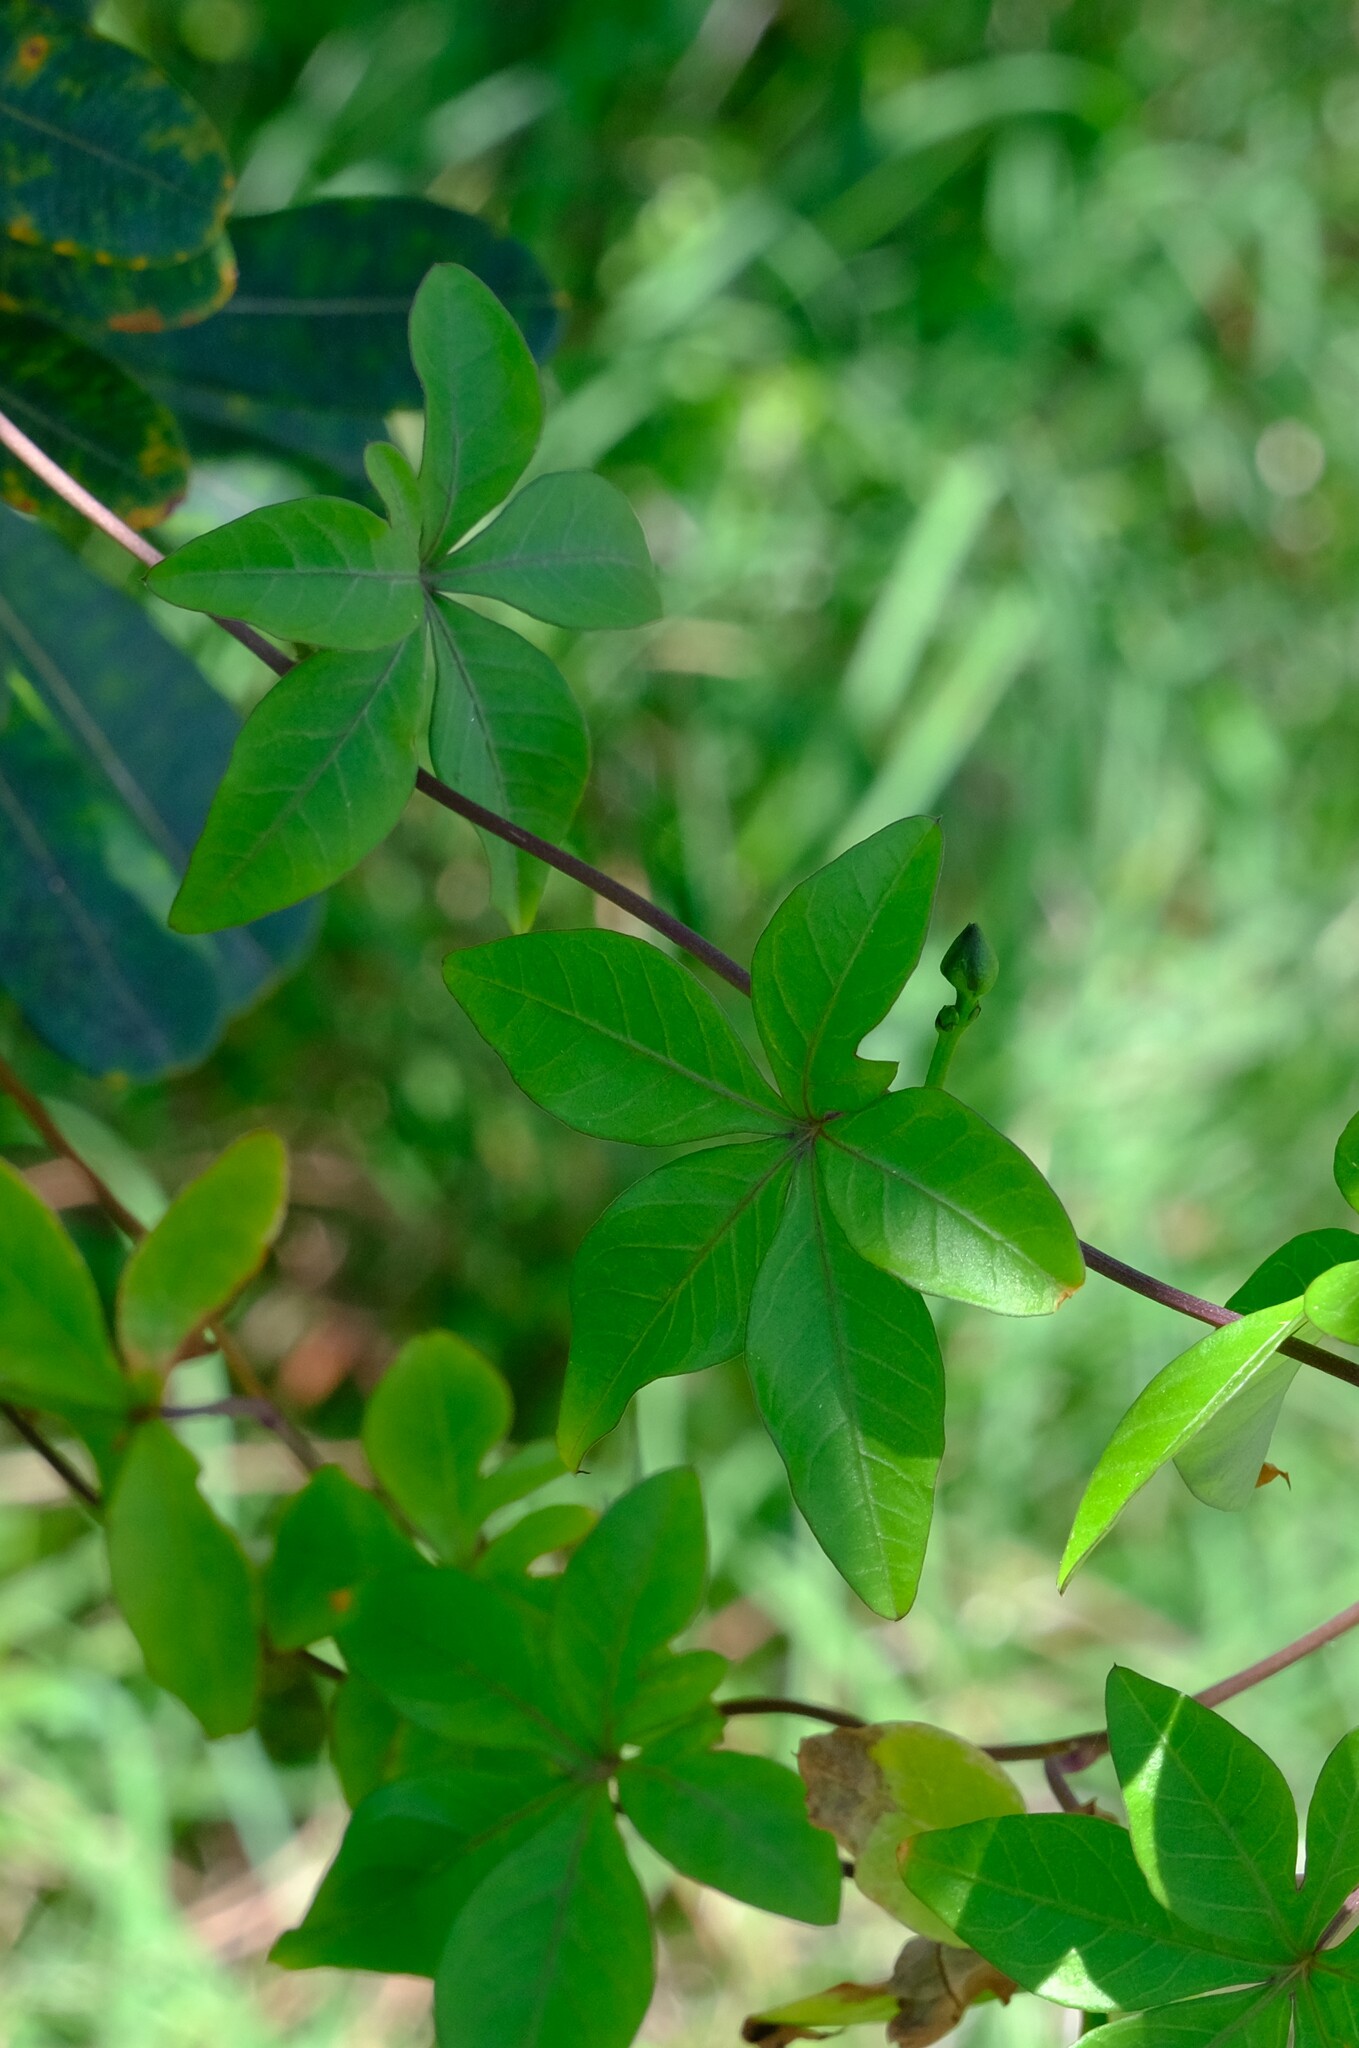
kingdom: Plantae
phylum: Tracheophyta
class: Magnoliopsida
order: Solanales
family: Convolvulaceae
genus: Ipomoea
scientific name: Ipomoea cairica
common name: Mile a minute vine
